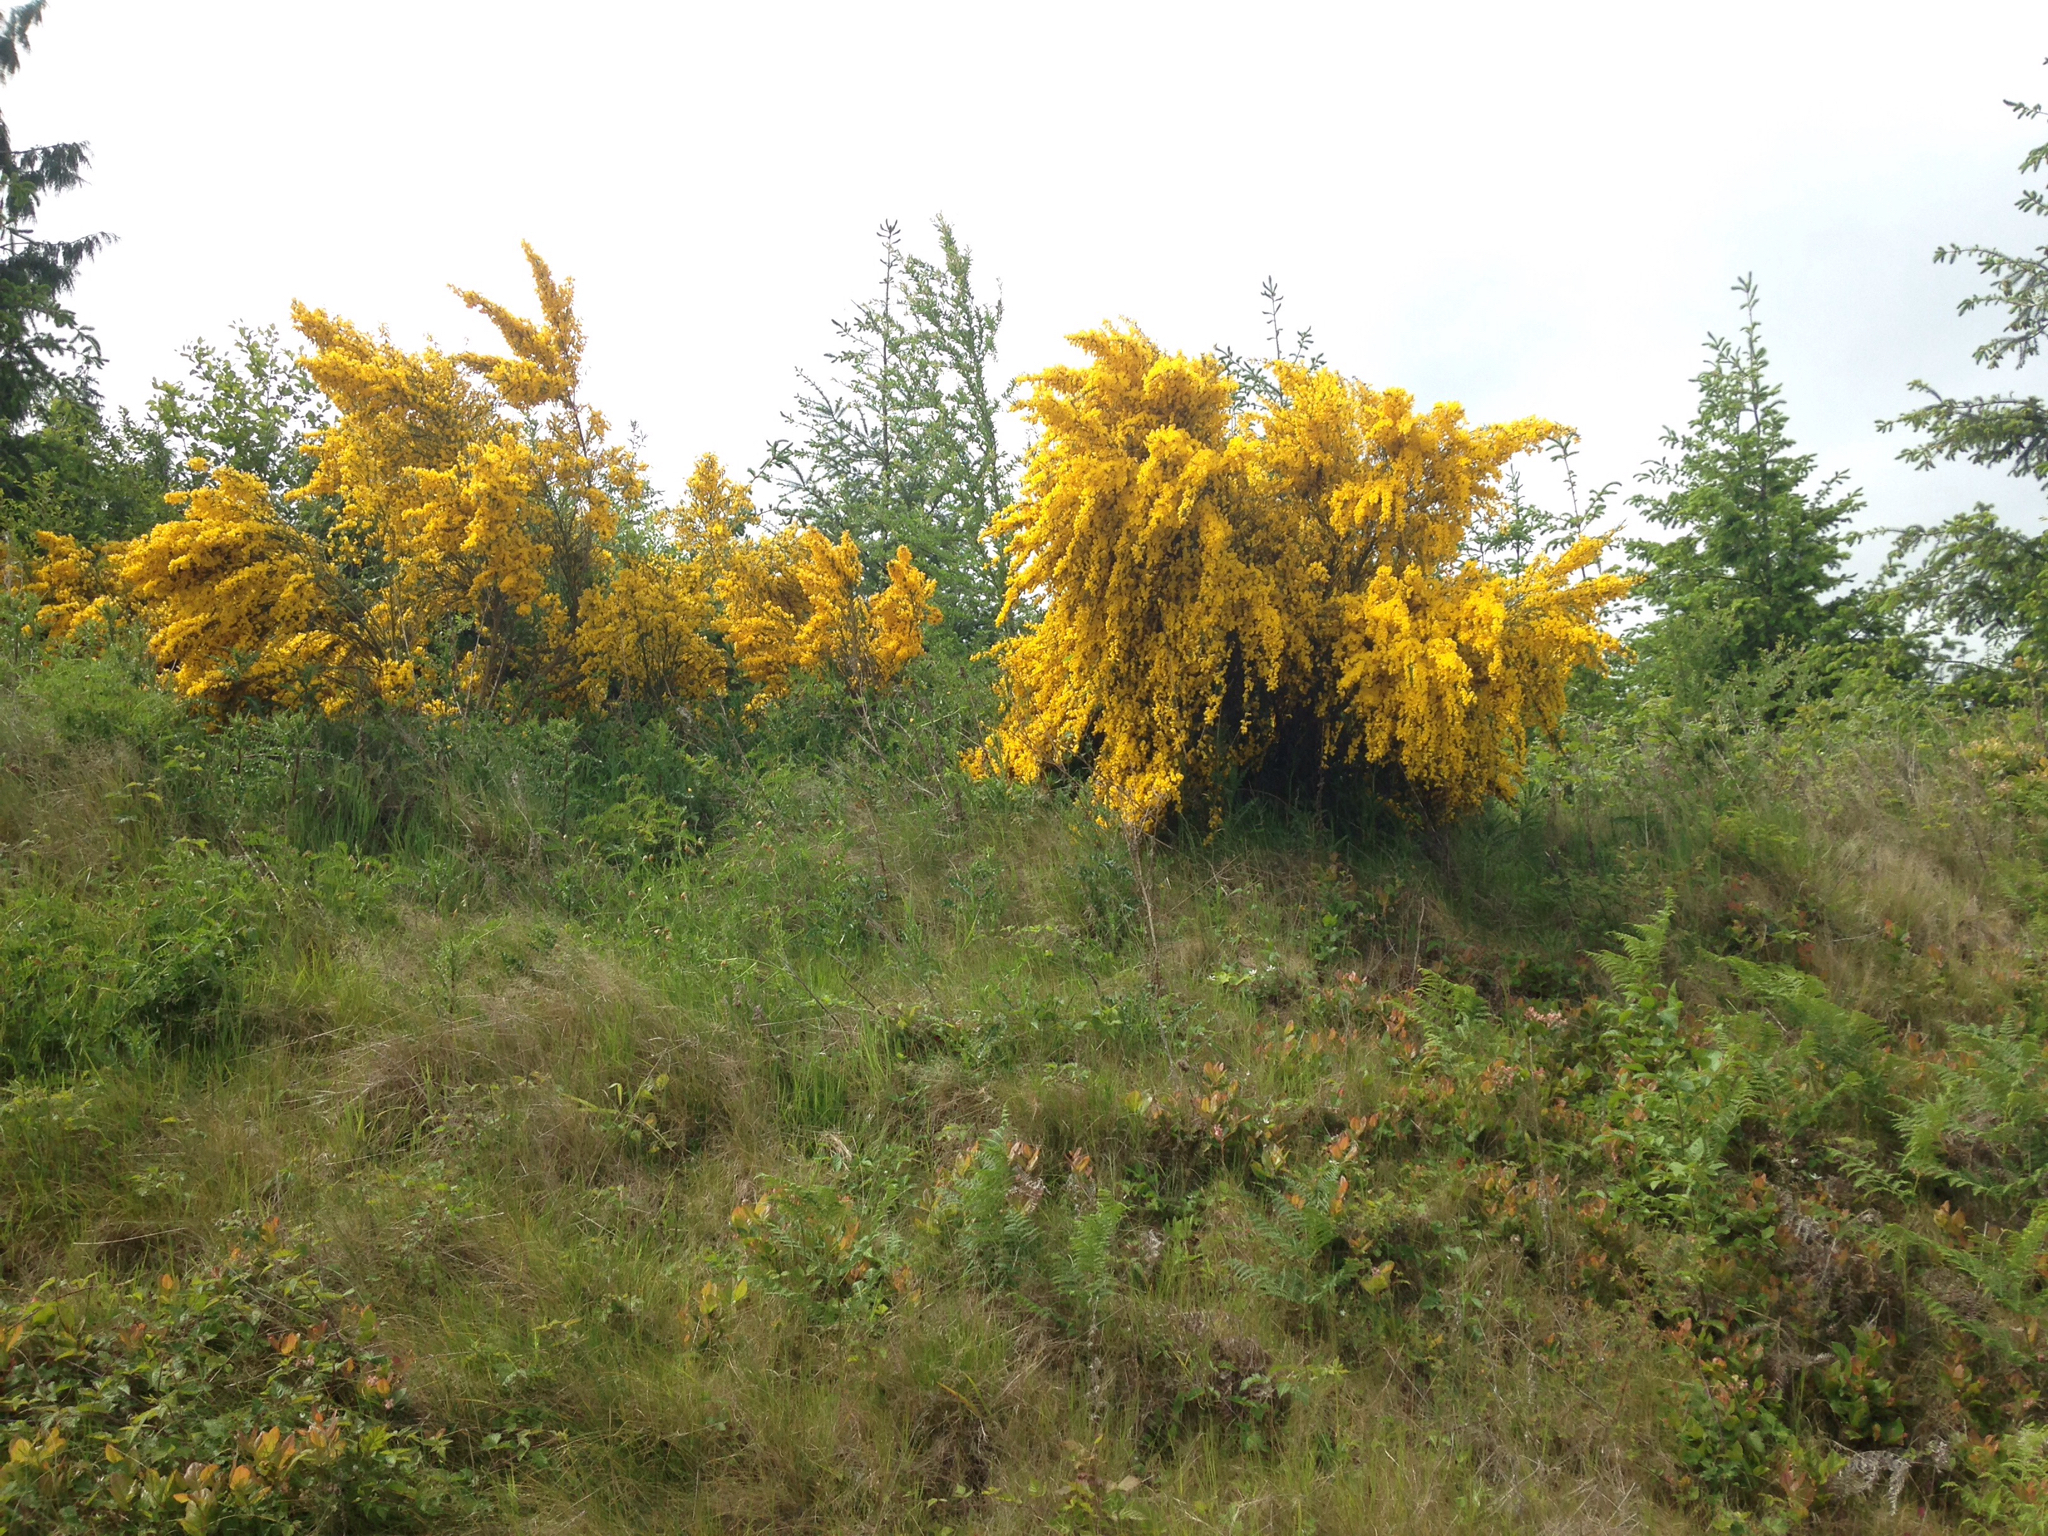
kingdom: Plantae
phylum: Tracheophyta
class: Magnoliopsida
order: Fabales
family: Fabaceae
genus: Cytisus
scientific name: Cytisus scoparius
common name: Scotch broom
